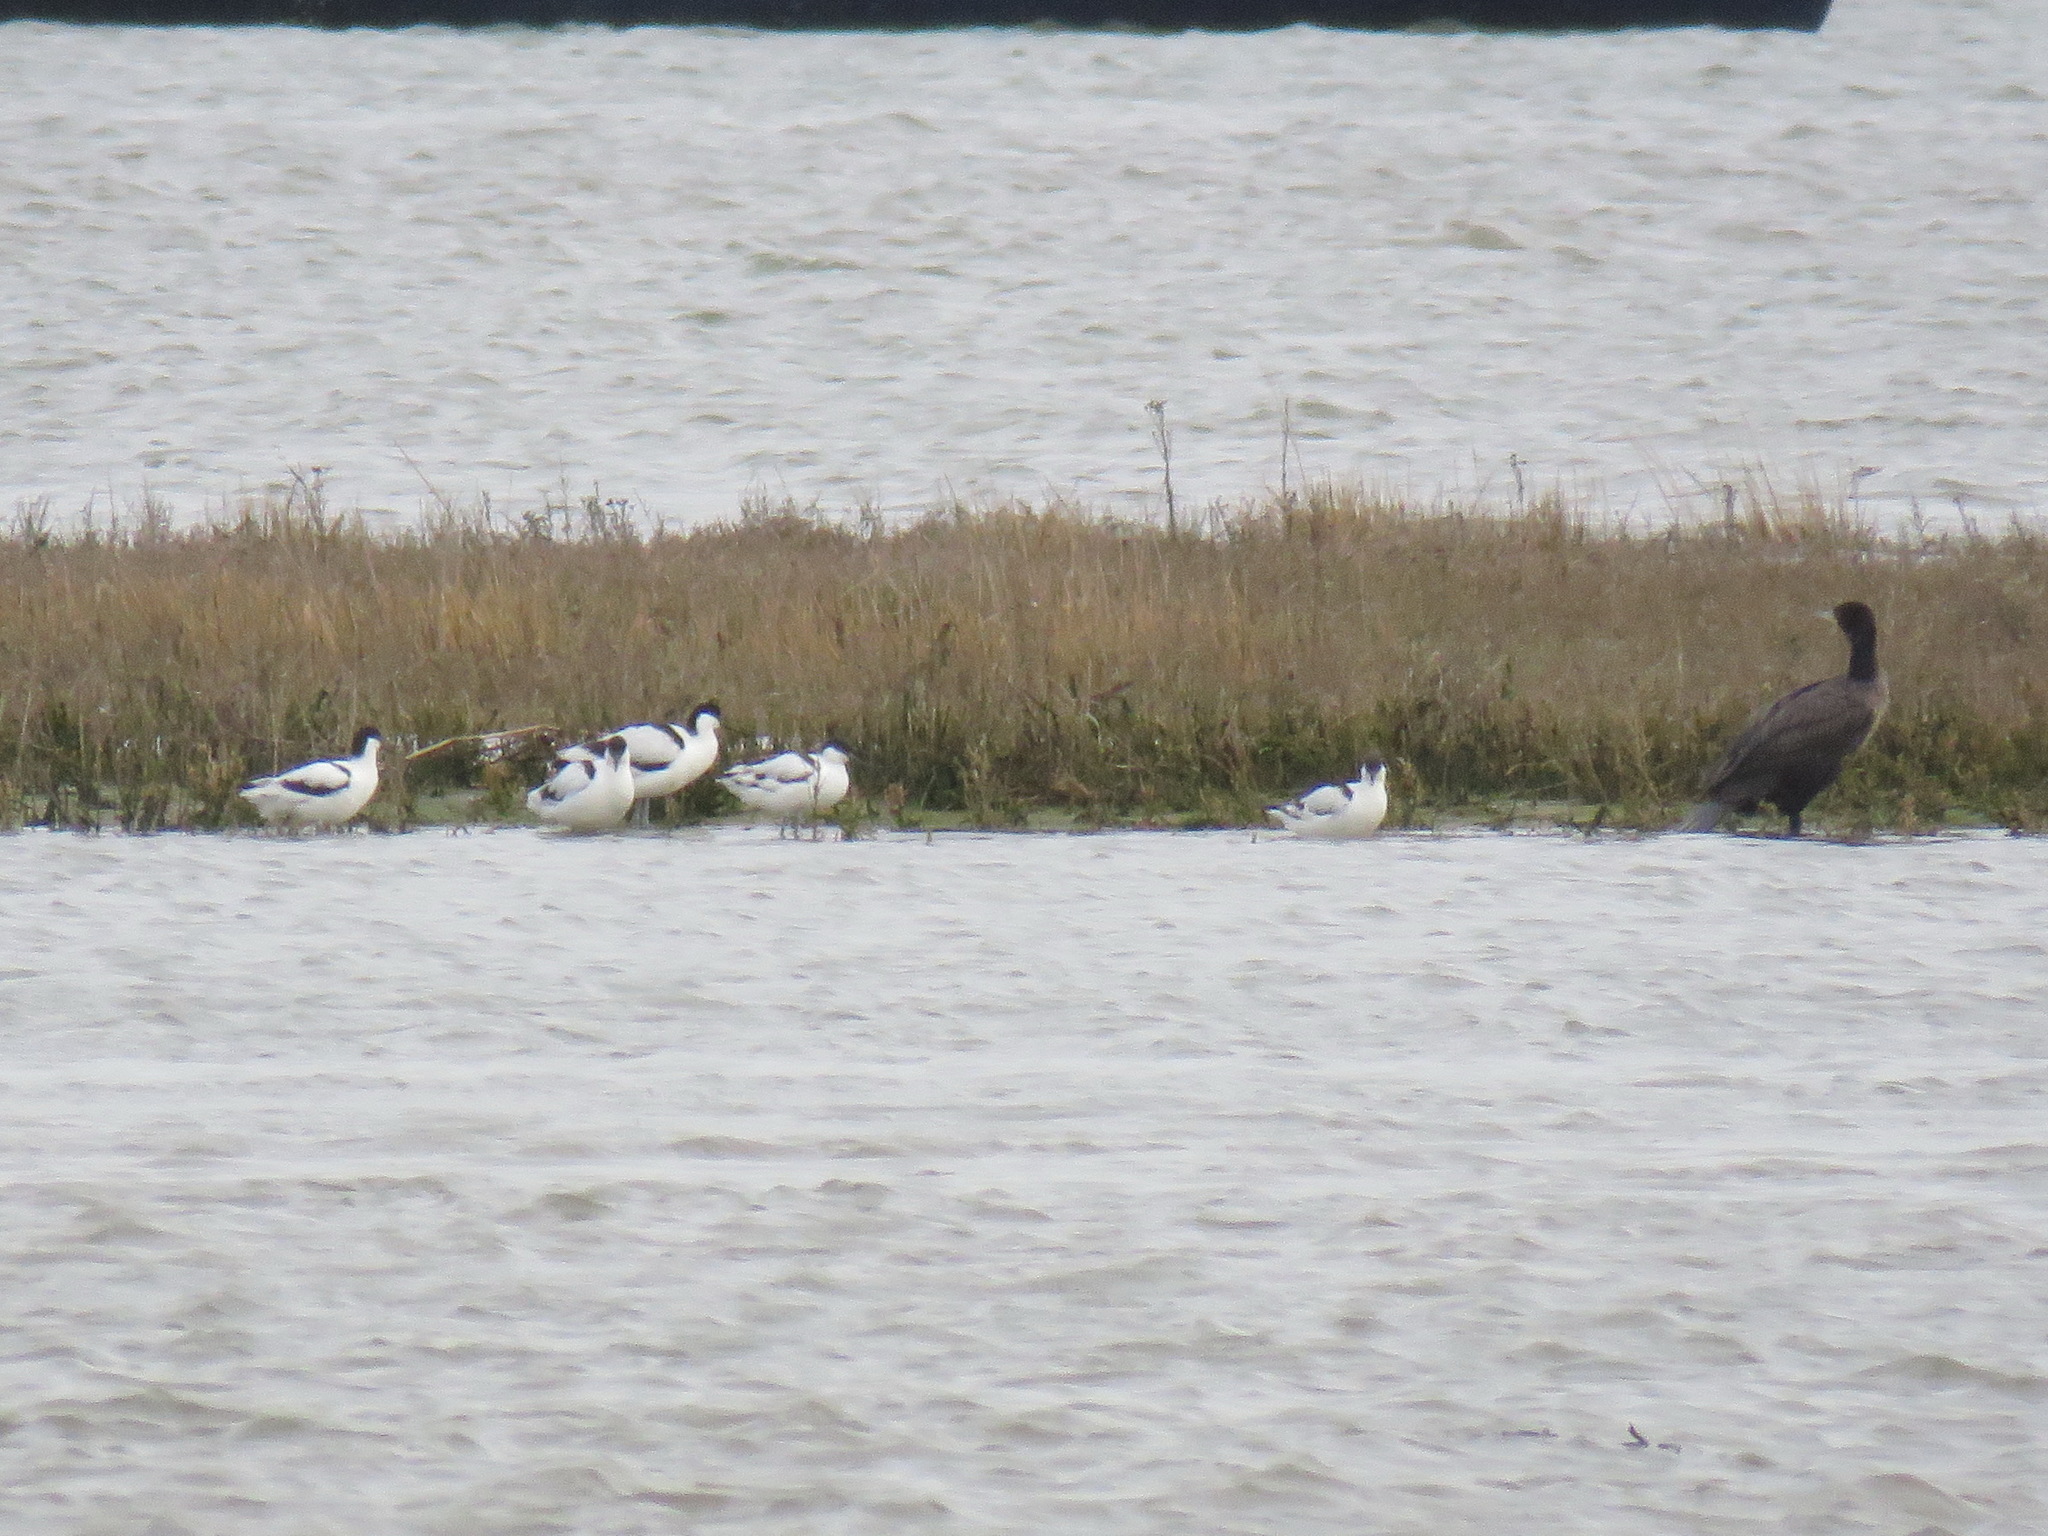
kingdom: Animalia
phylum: Chordata
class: Aves
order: Suliformes
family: Phalacrocoracidae
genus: Phalacrocorax
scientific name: Phalacrocorax carbo
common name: Great cormorant
